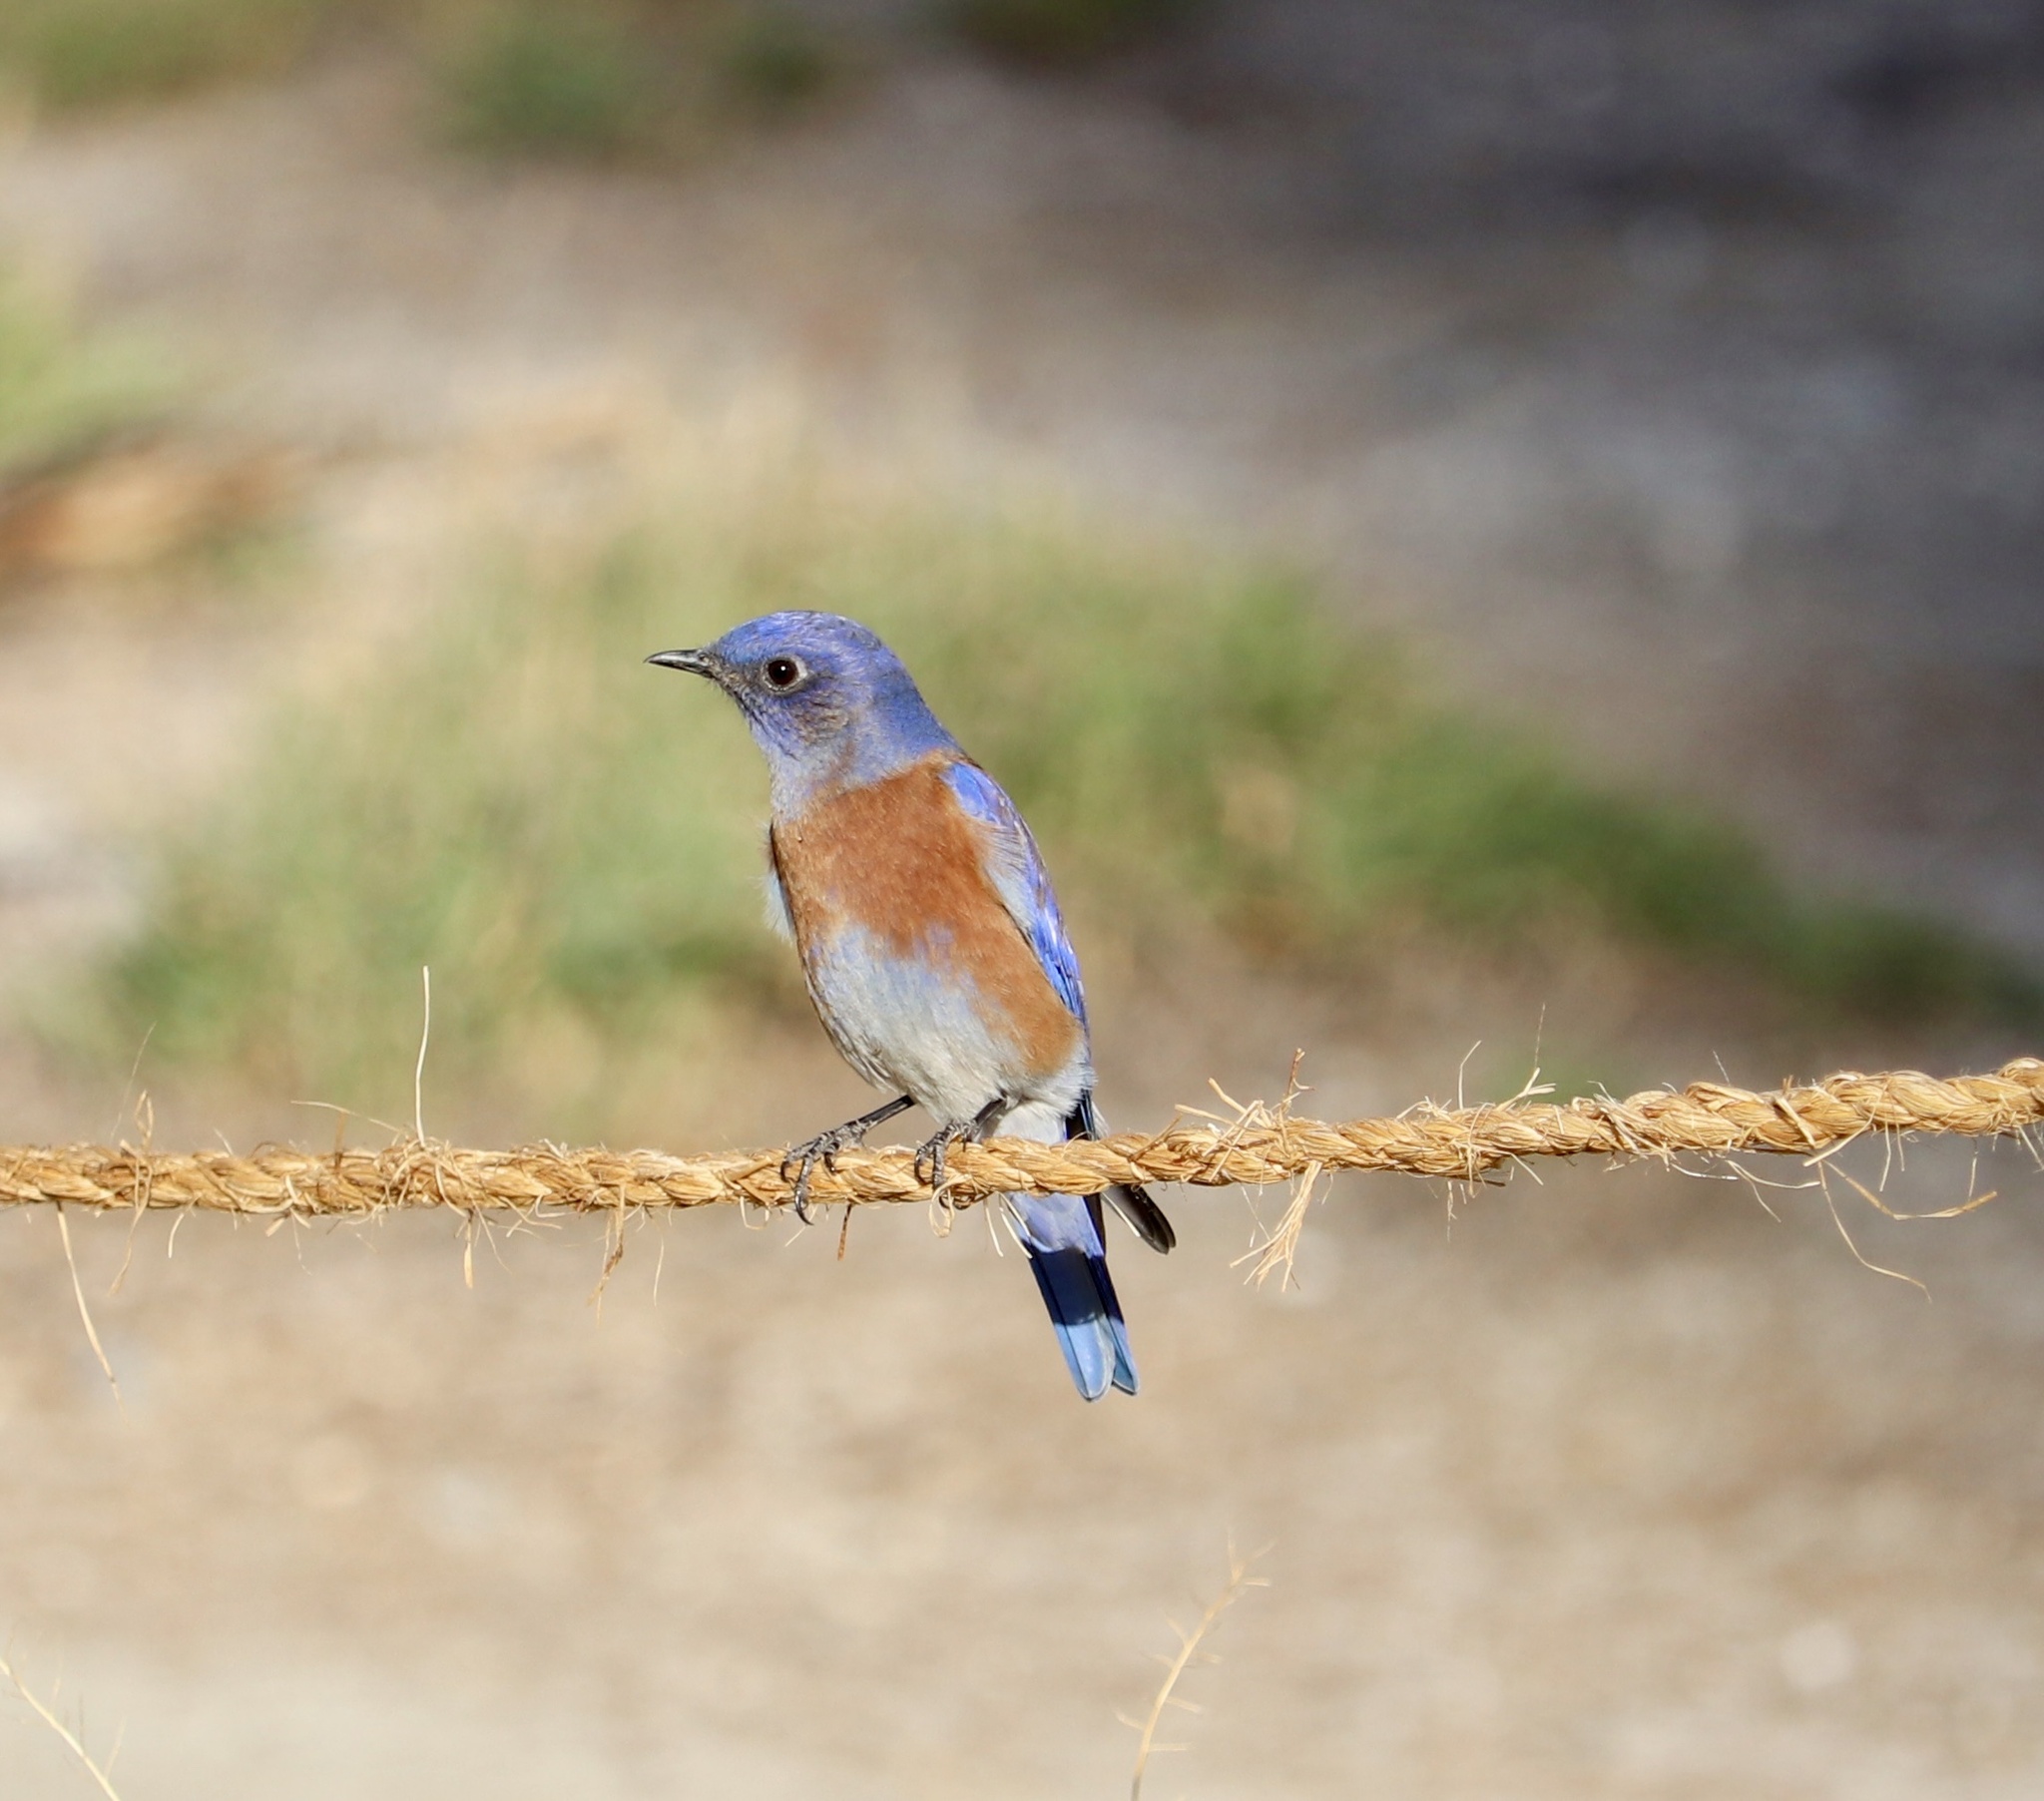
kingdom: Animalia
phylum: Chordata
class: Aves
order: Passeriformes
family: Turdidae
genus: Sialia
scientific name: Sialia mexicana
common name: Western bluebird
